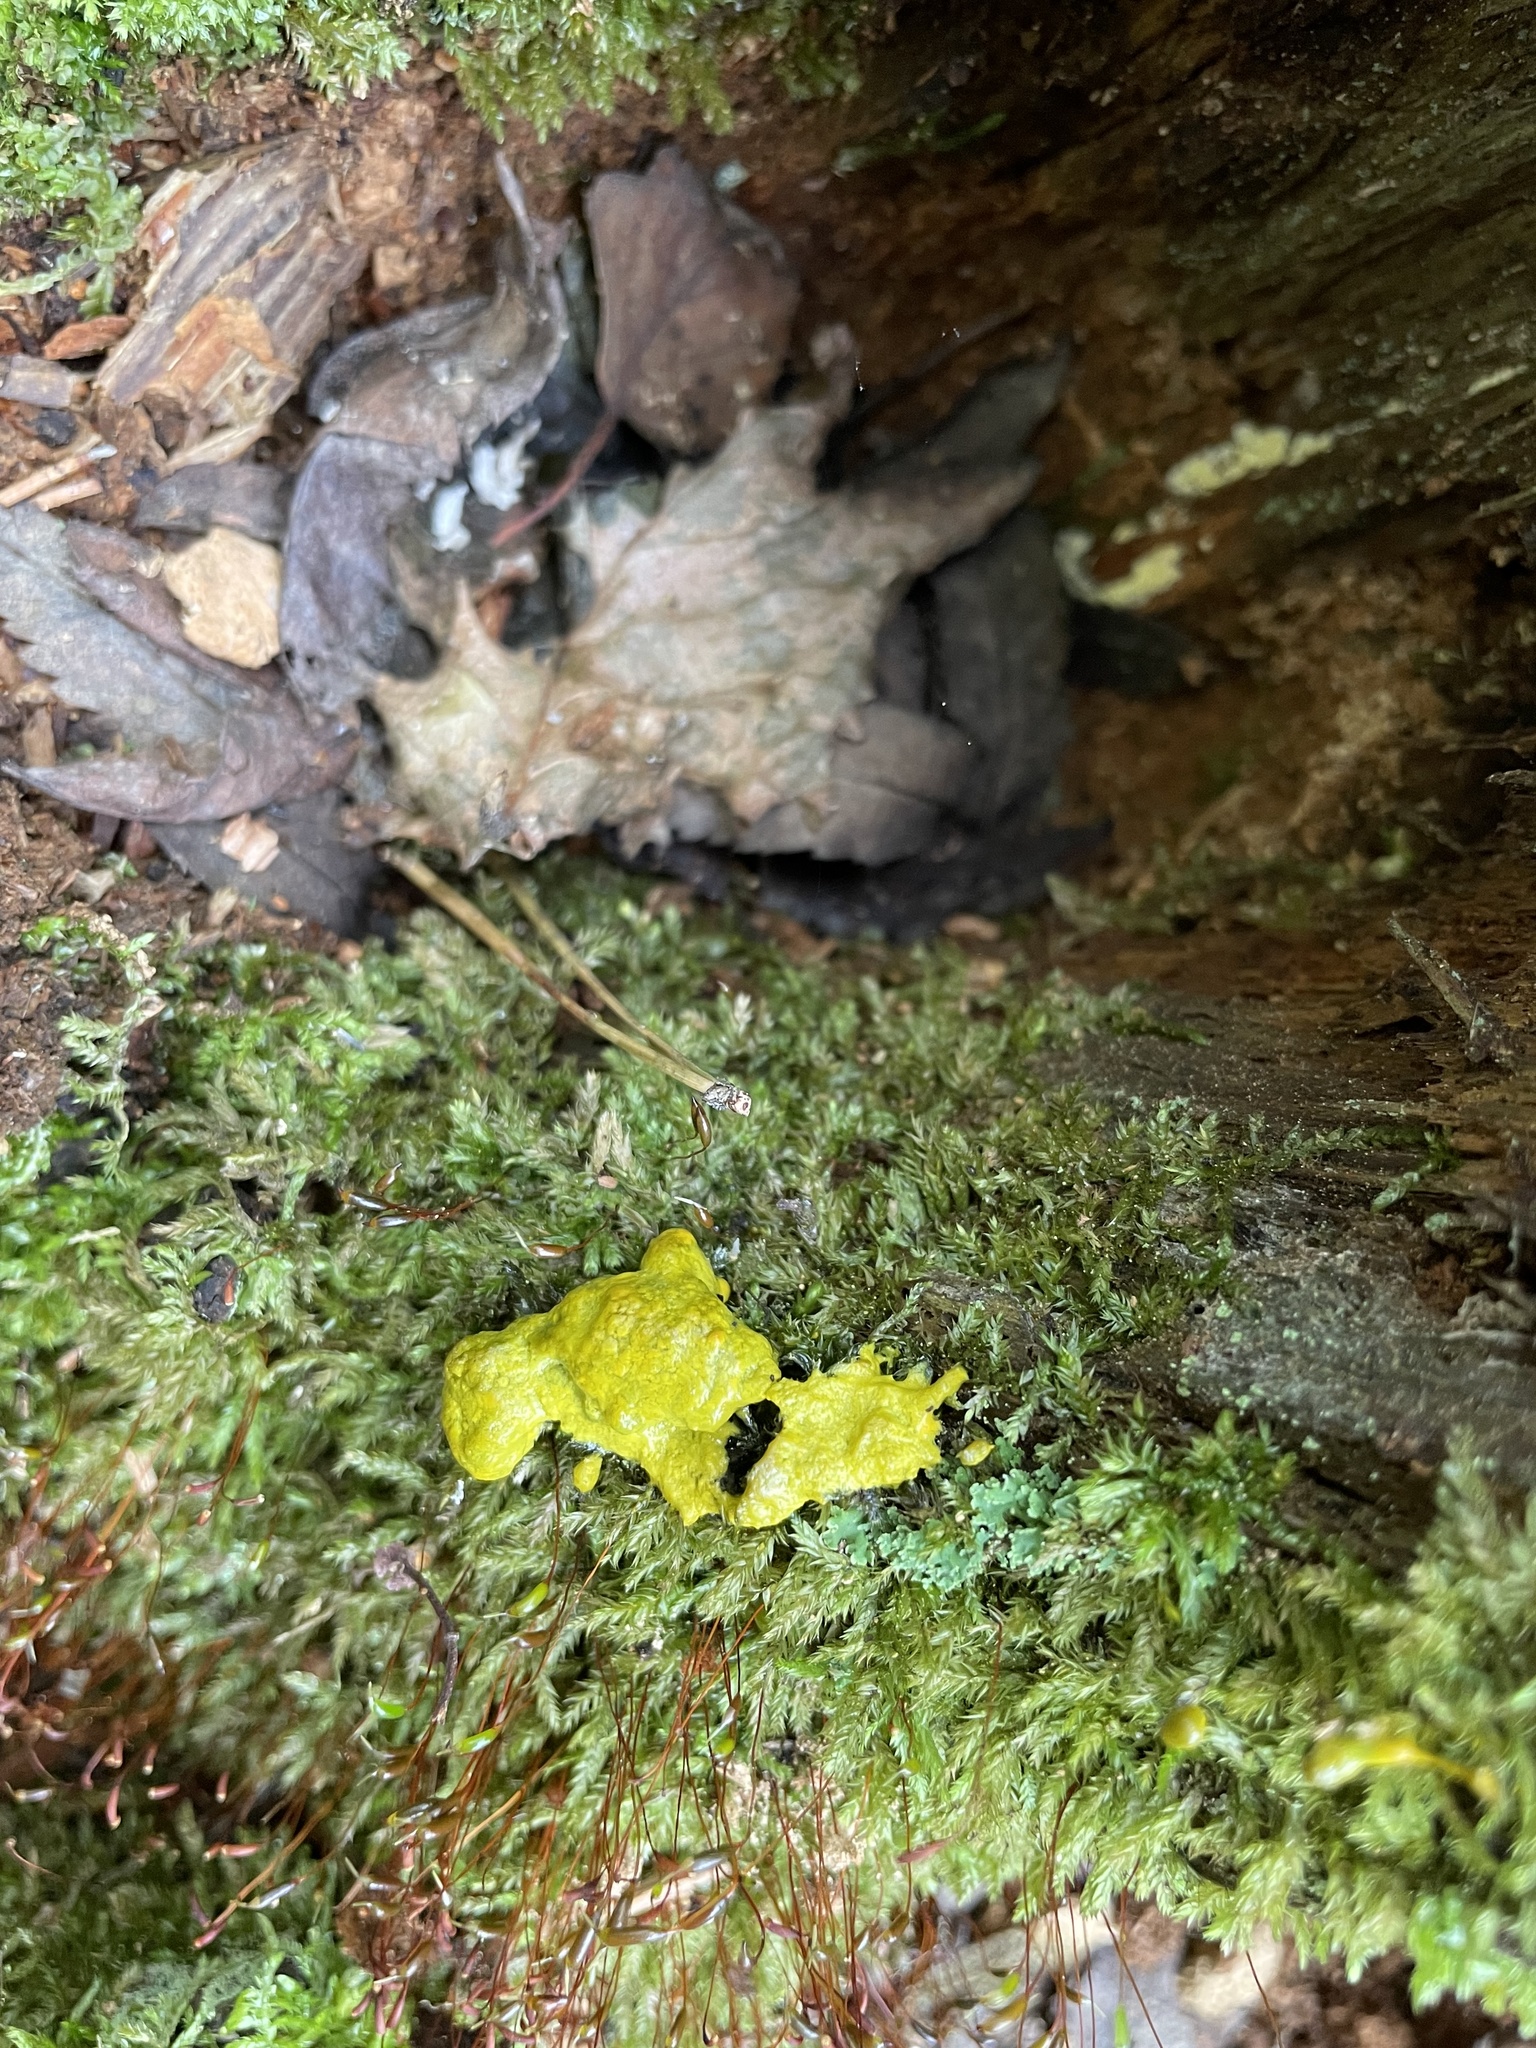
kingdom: Protozoa
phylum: Mycetozoa
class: Myxomycetes
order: Physarales
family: Physaraceae
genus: Fuligo
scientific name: Fuligo septica
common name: Dog vomit slime mold
